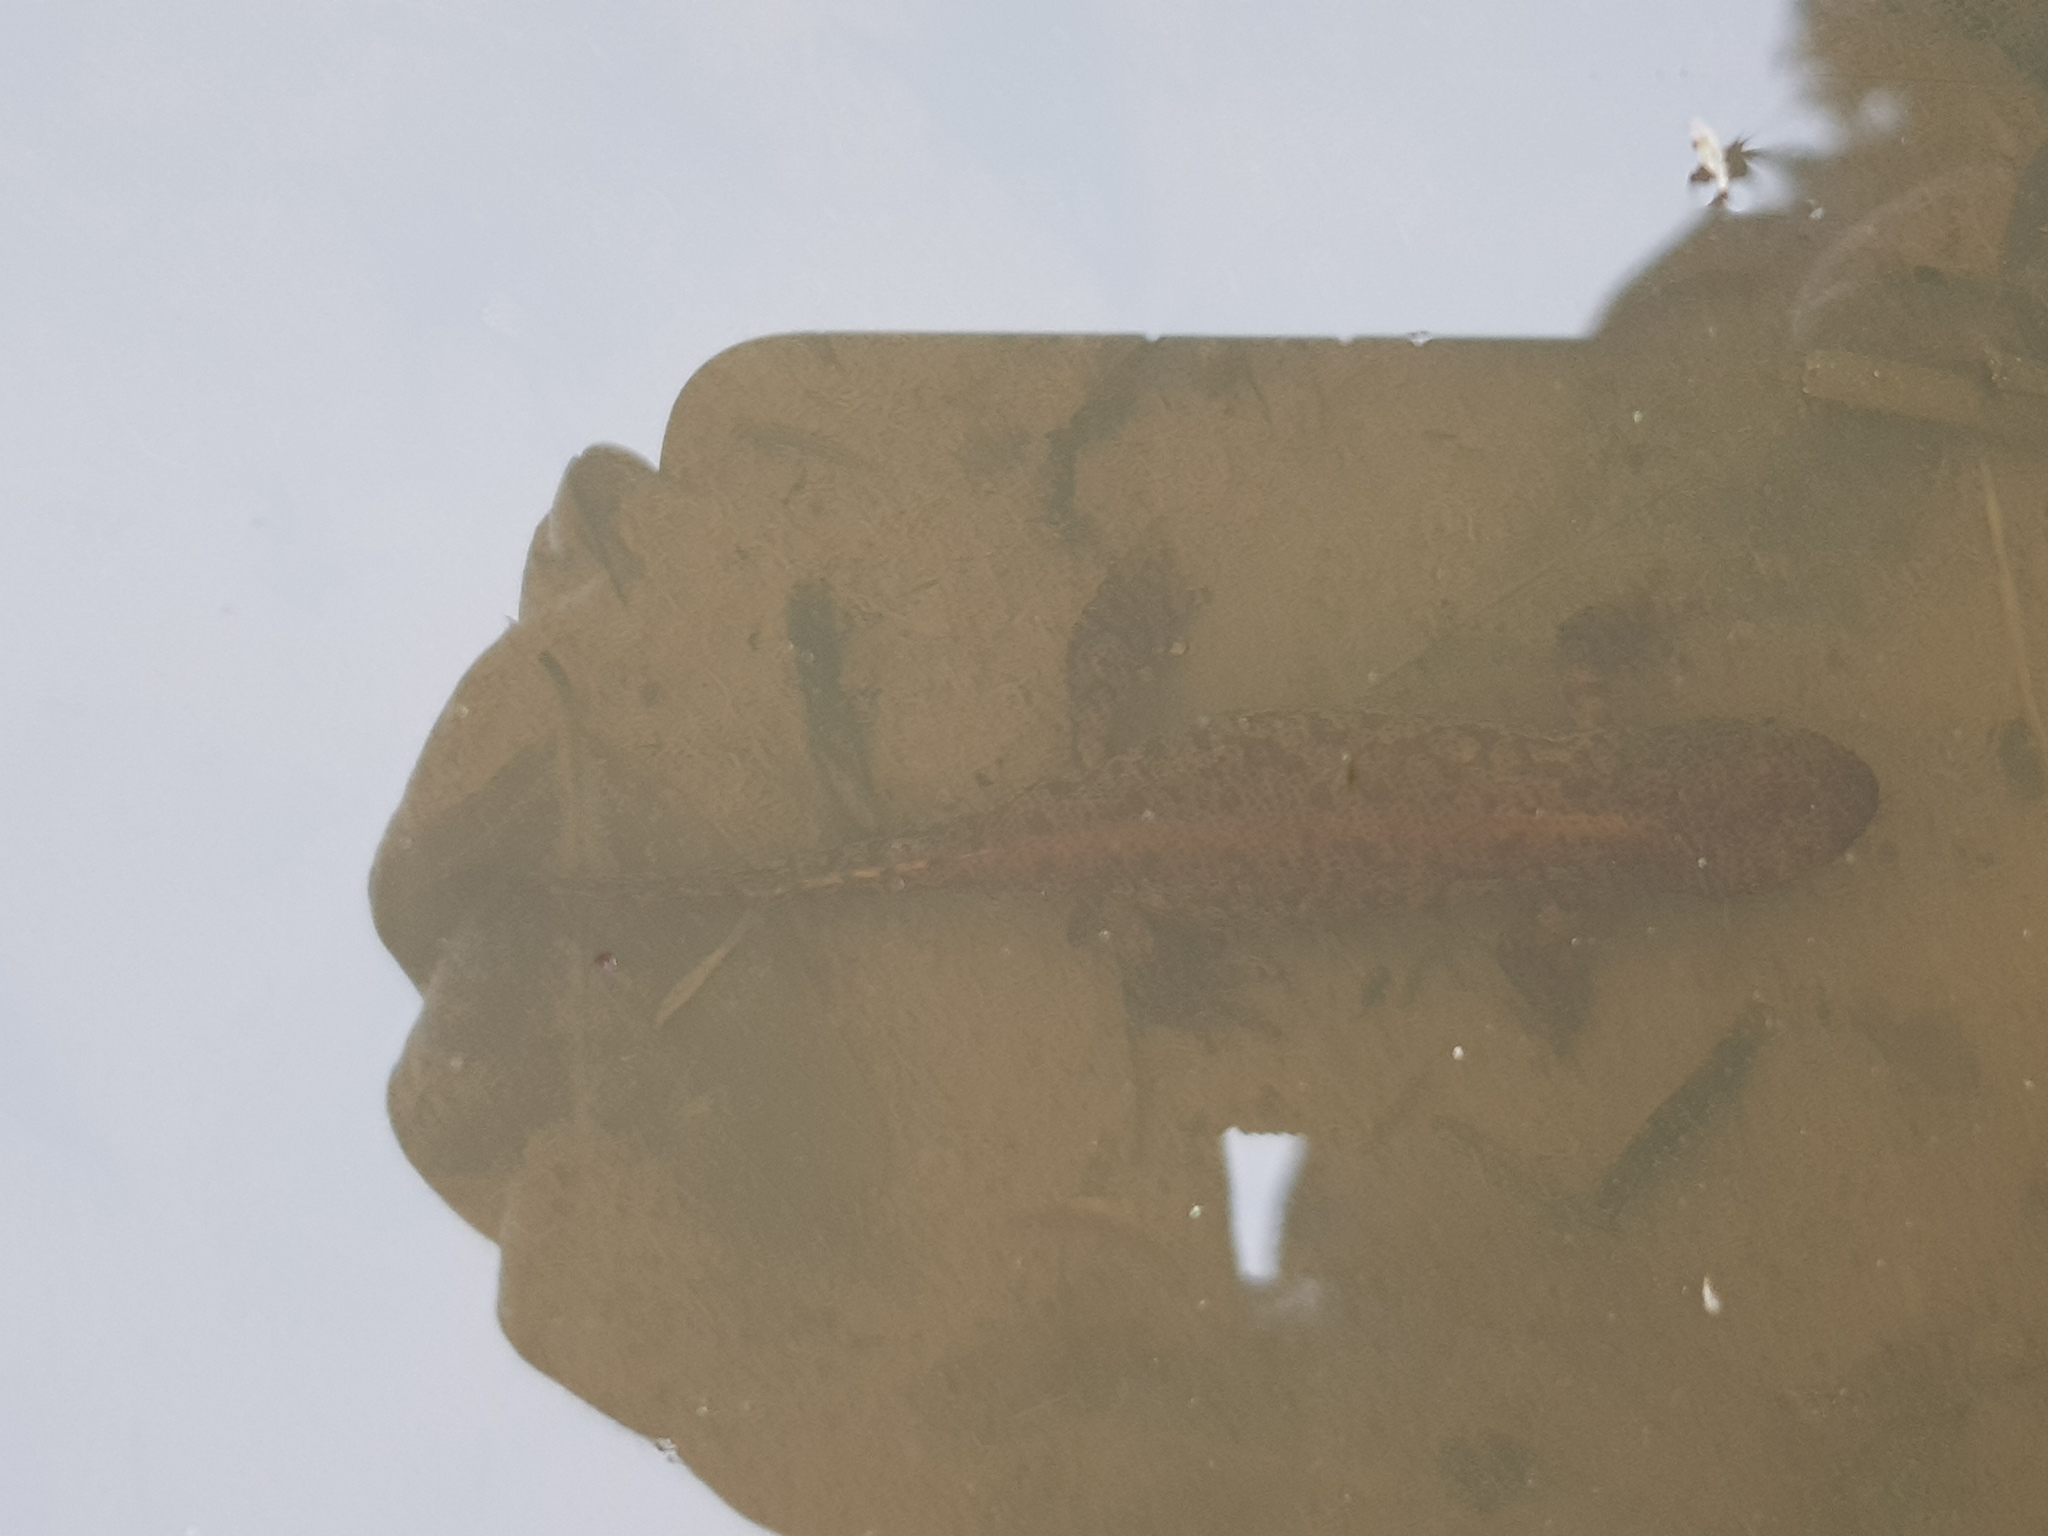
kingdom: Animalia
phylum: Chordata
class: Amphibia
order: Caudata
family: Salamandridae
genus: Ichthyosaura
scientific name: Ichthyosaura alpestris
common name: Alpine newt
